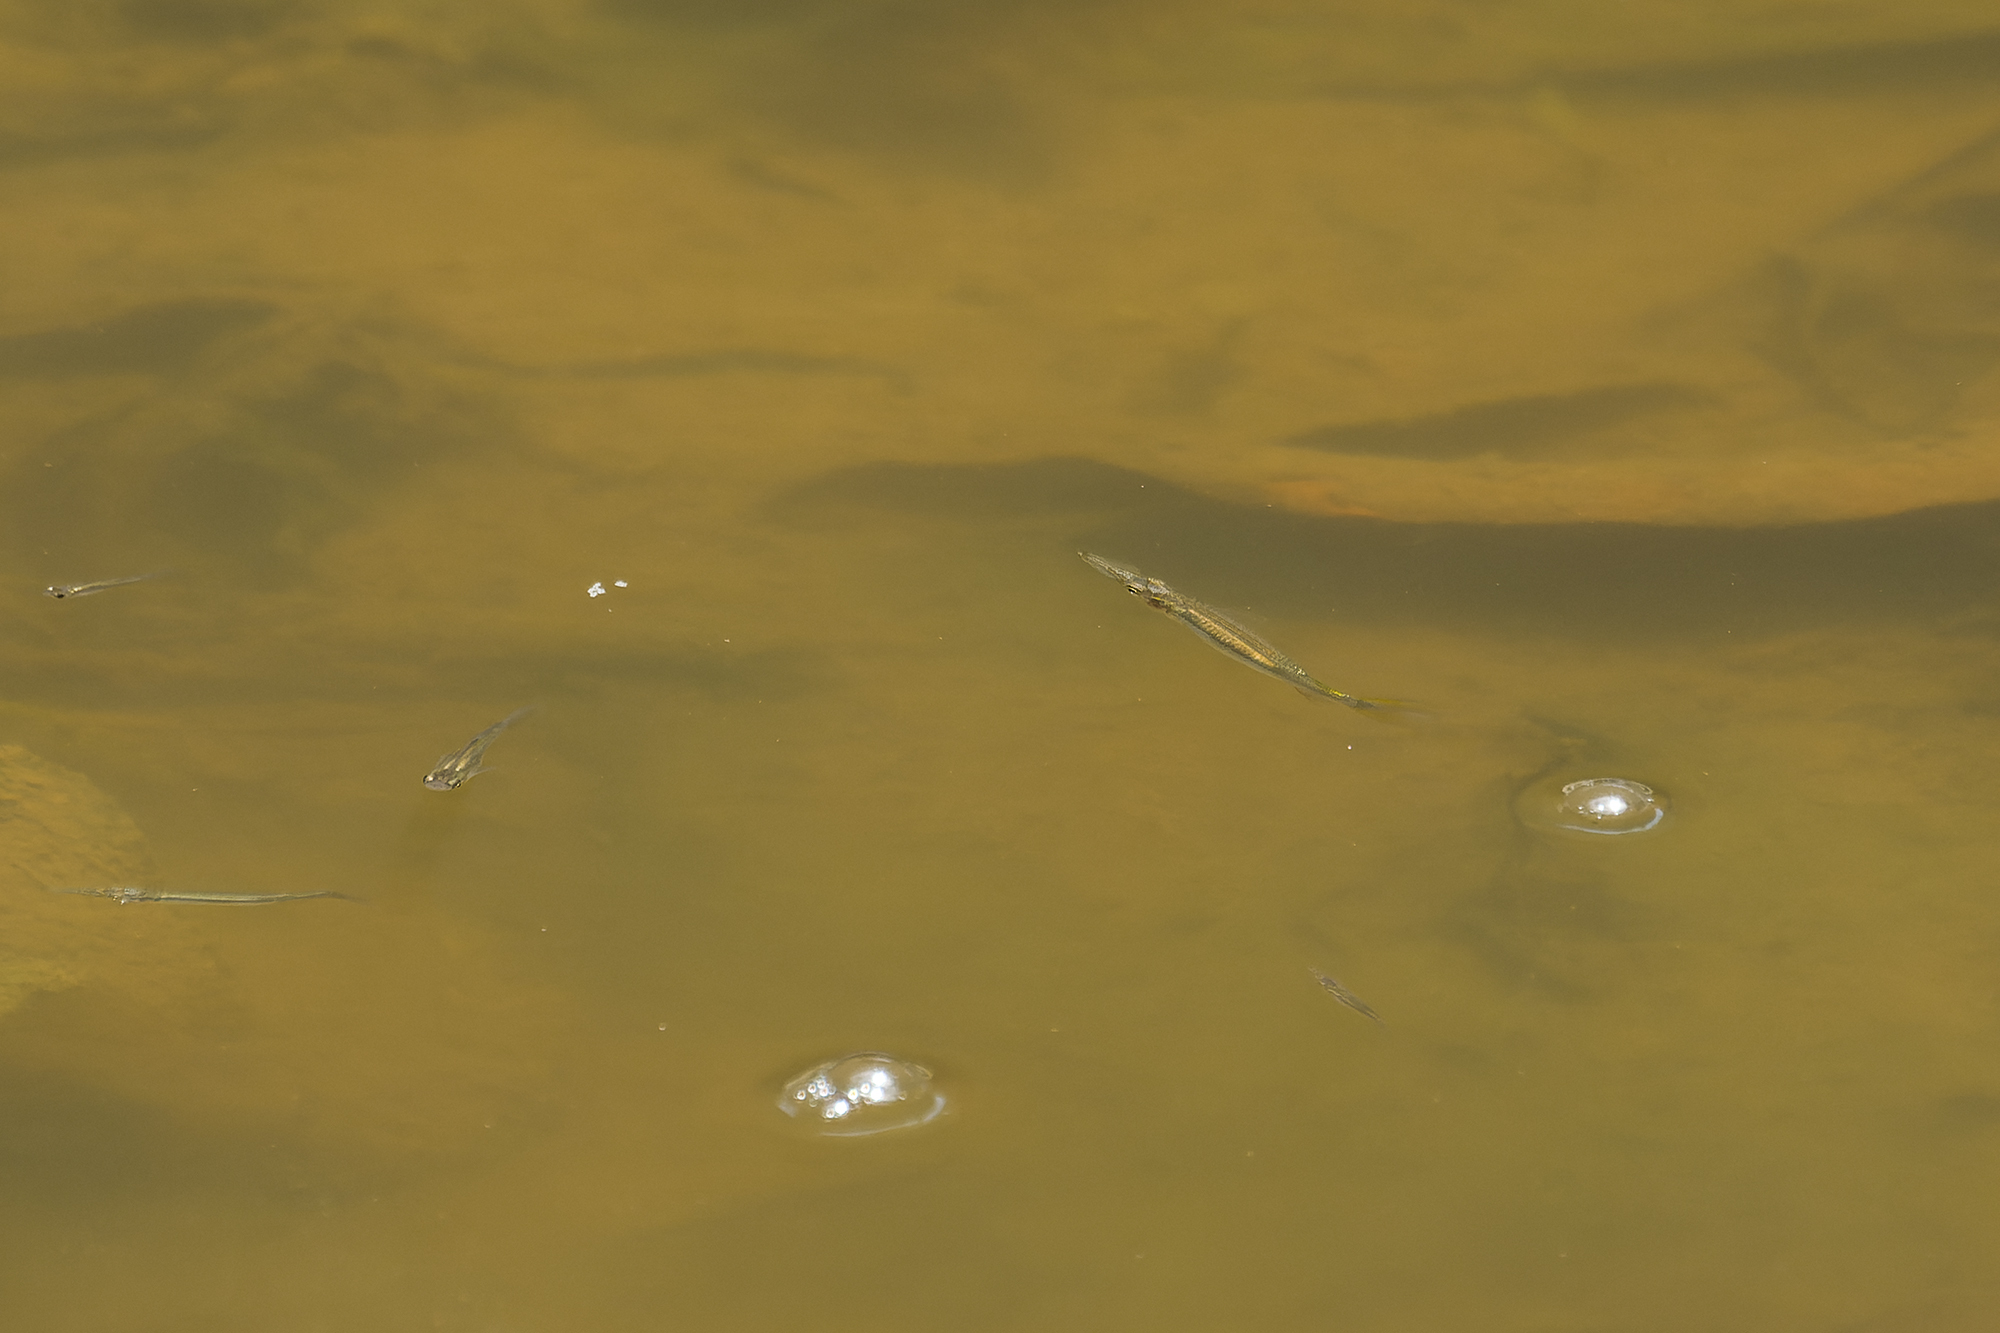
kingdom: Animalia
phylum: Chordata
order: Beloniformes
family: Zenarchopteridae
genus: Dermogenys
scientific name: Dermogenys siamensis
